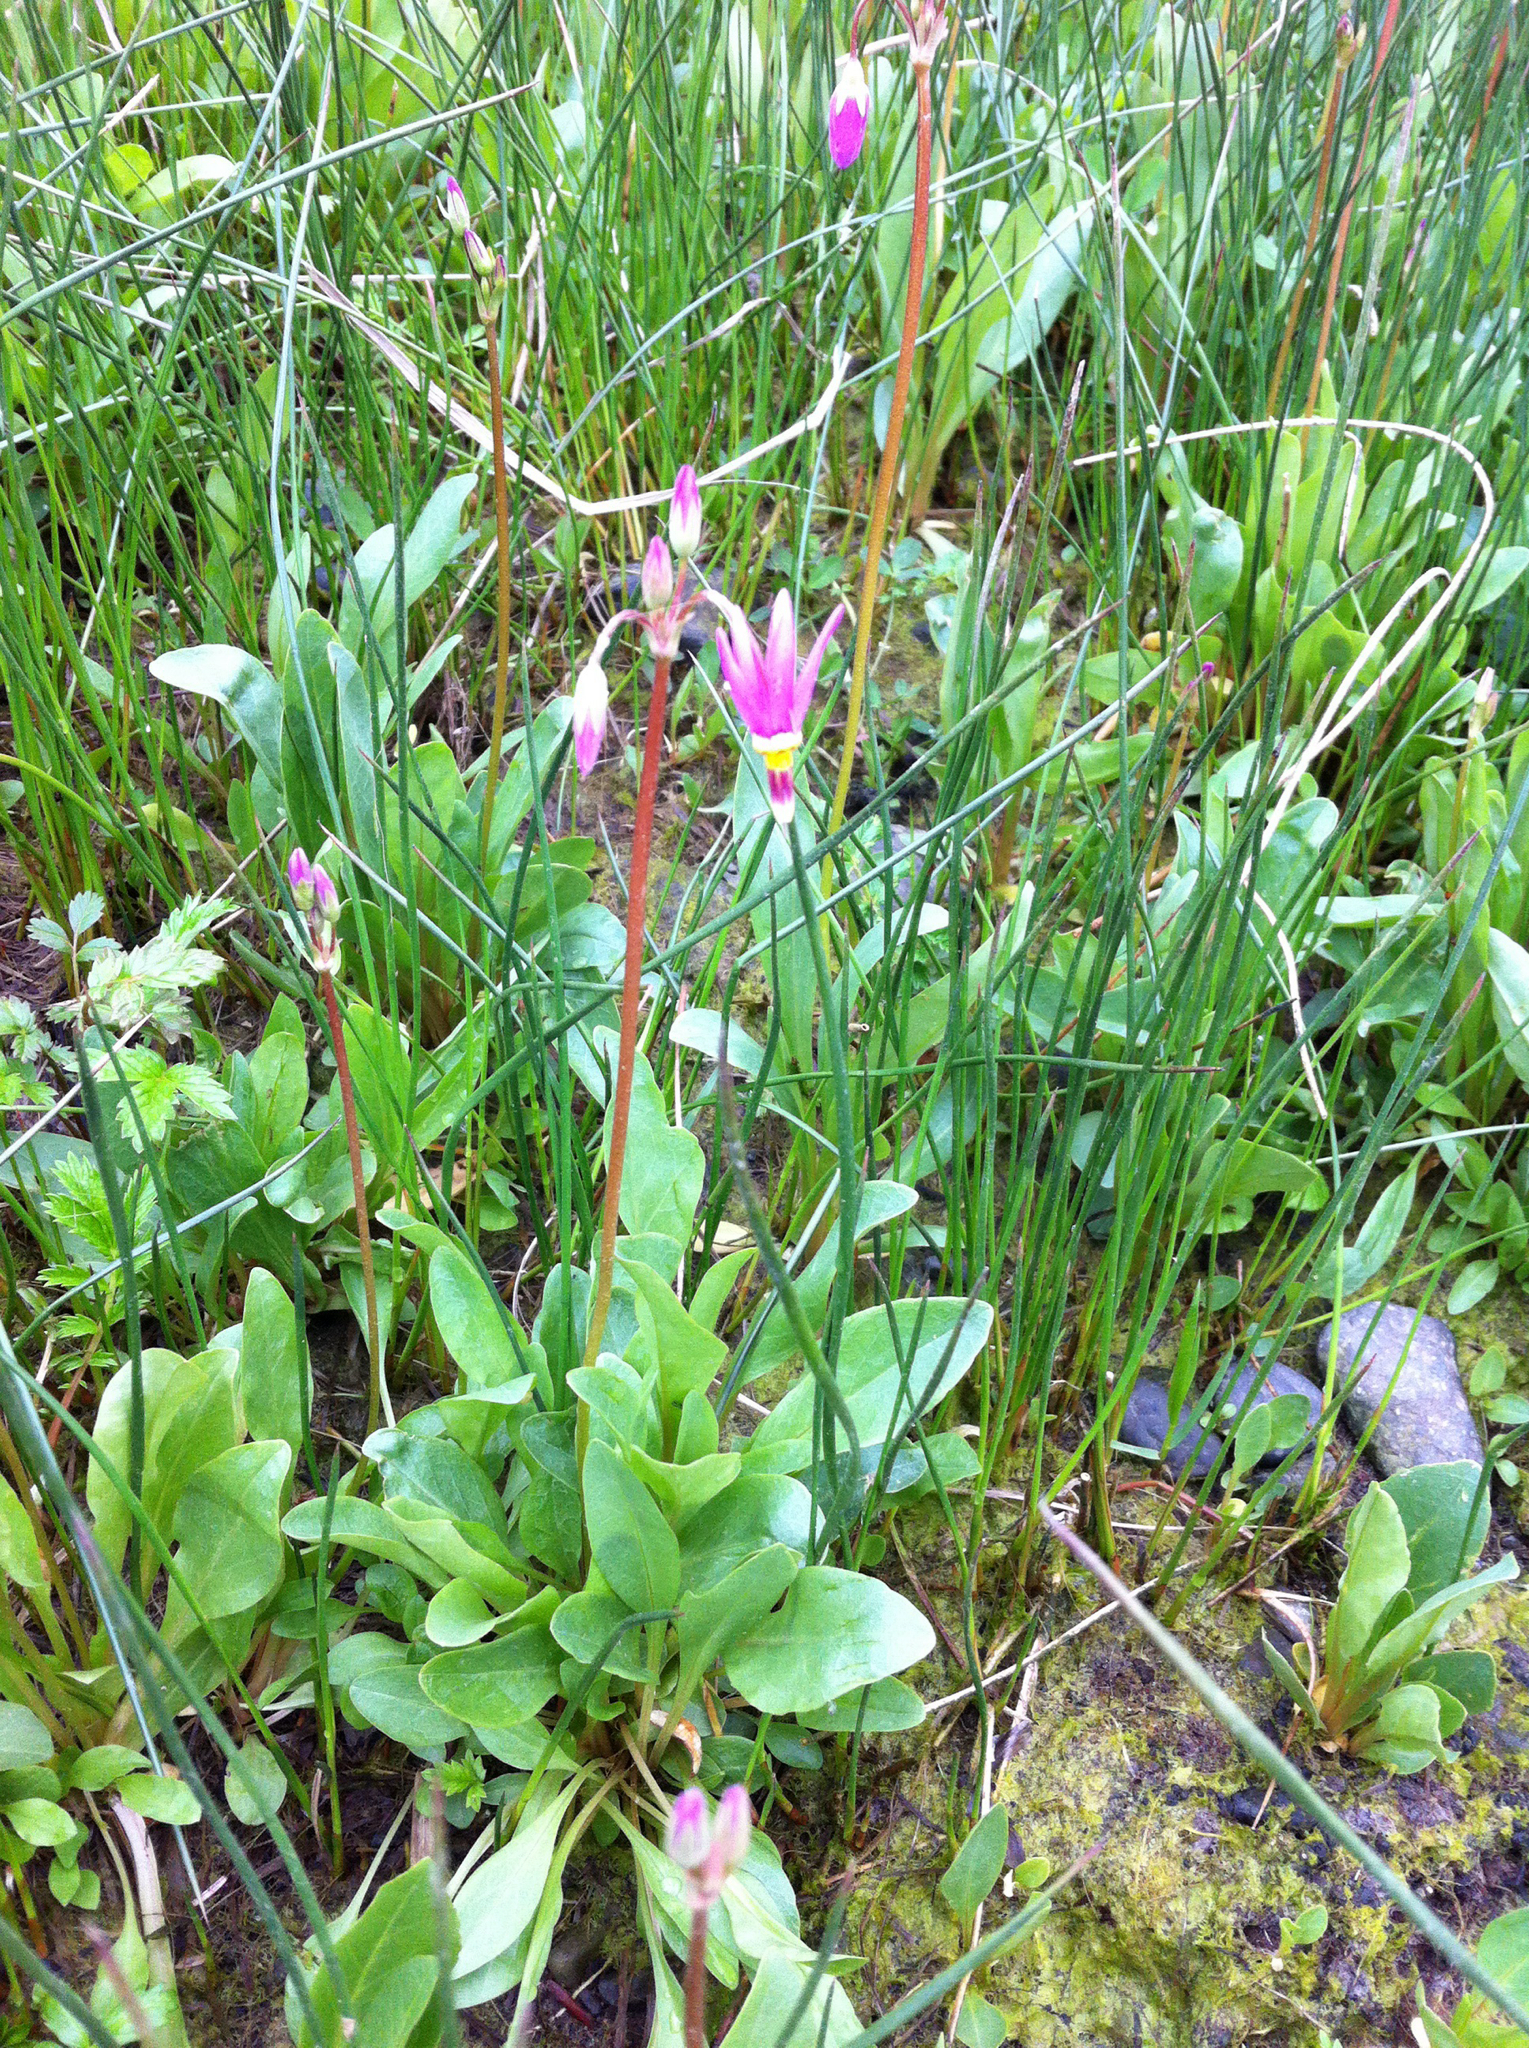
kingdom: Plantae
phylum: Tracheophyta
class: Magnoliopsida
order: Ericales
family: Primulaceae
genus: Dodecatheon
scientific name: Dodecatheon pulchellum
